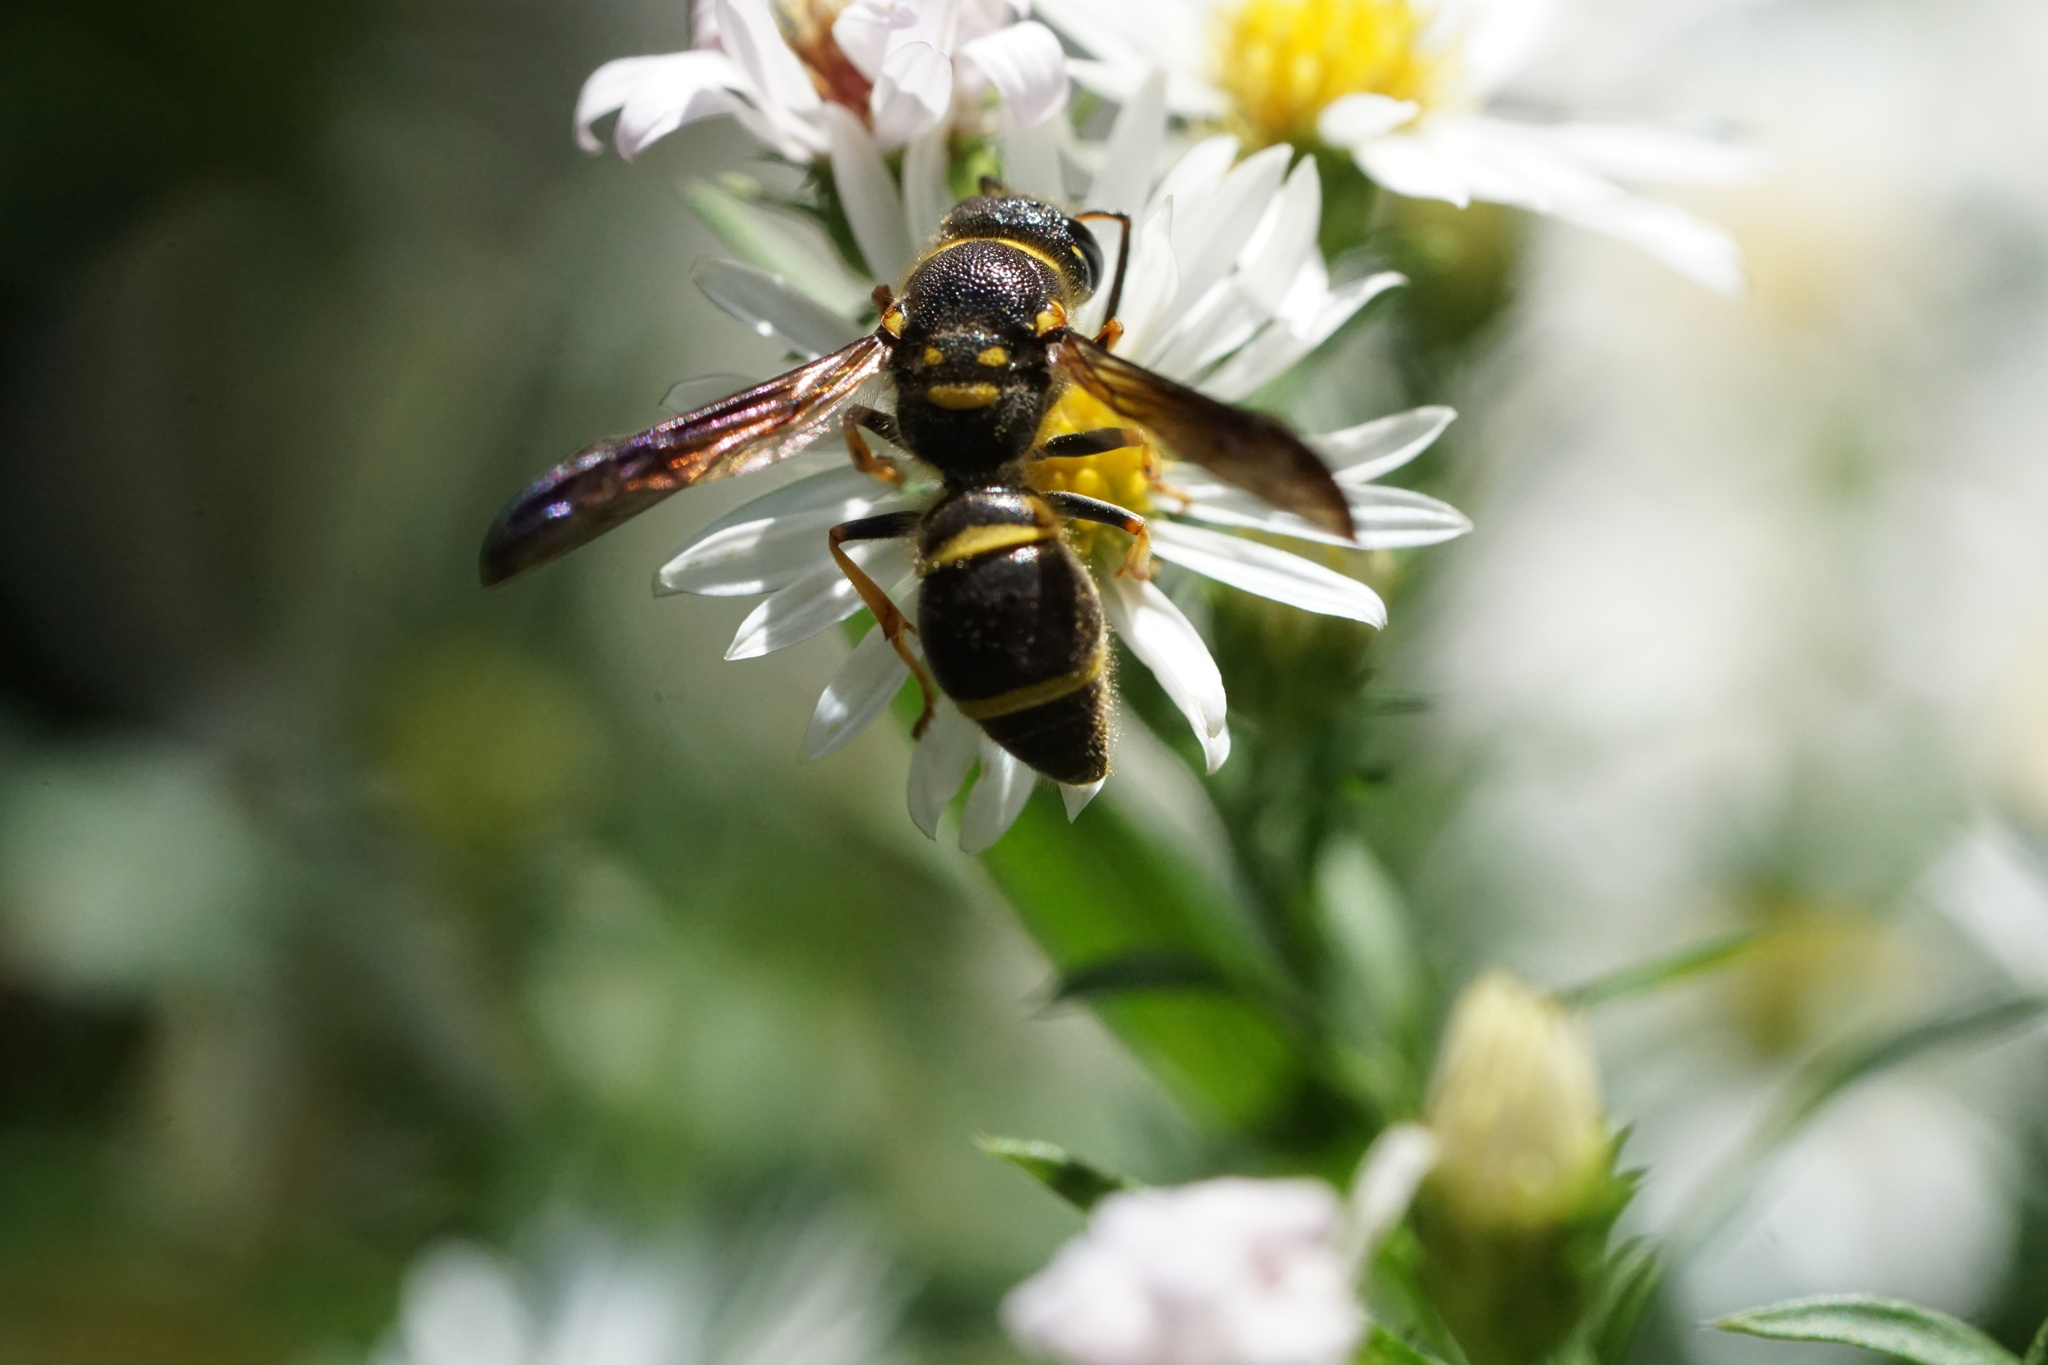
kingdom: Animalia
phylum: Arthropoda
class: Insecta
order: Hymenoptera
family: Vespidae
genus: Ancistrocerus
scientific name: Ancistrocerus campestris
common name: Smiling mason wasp
